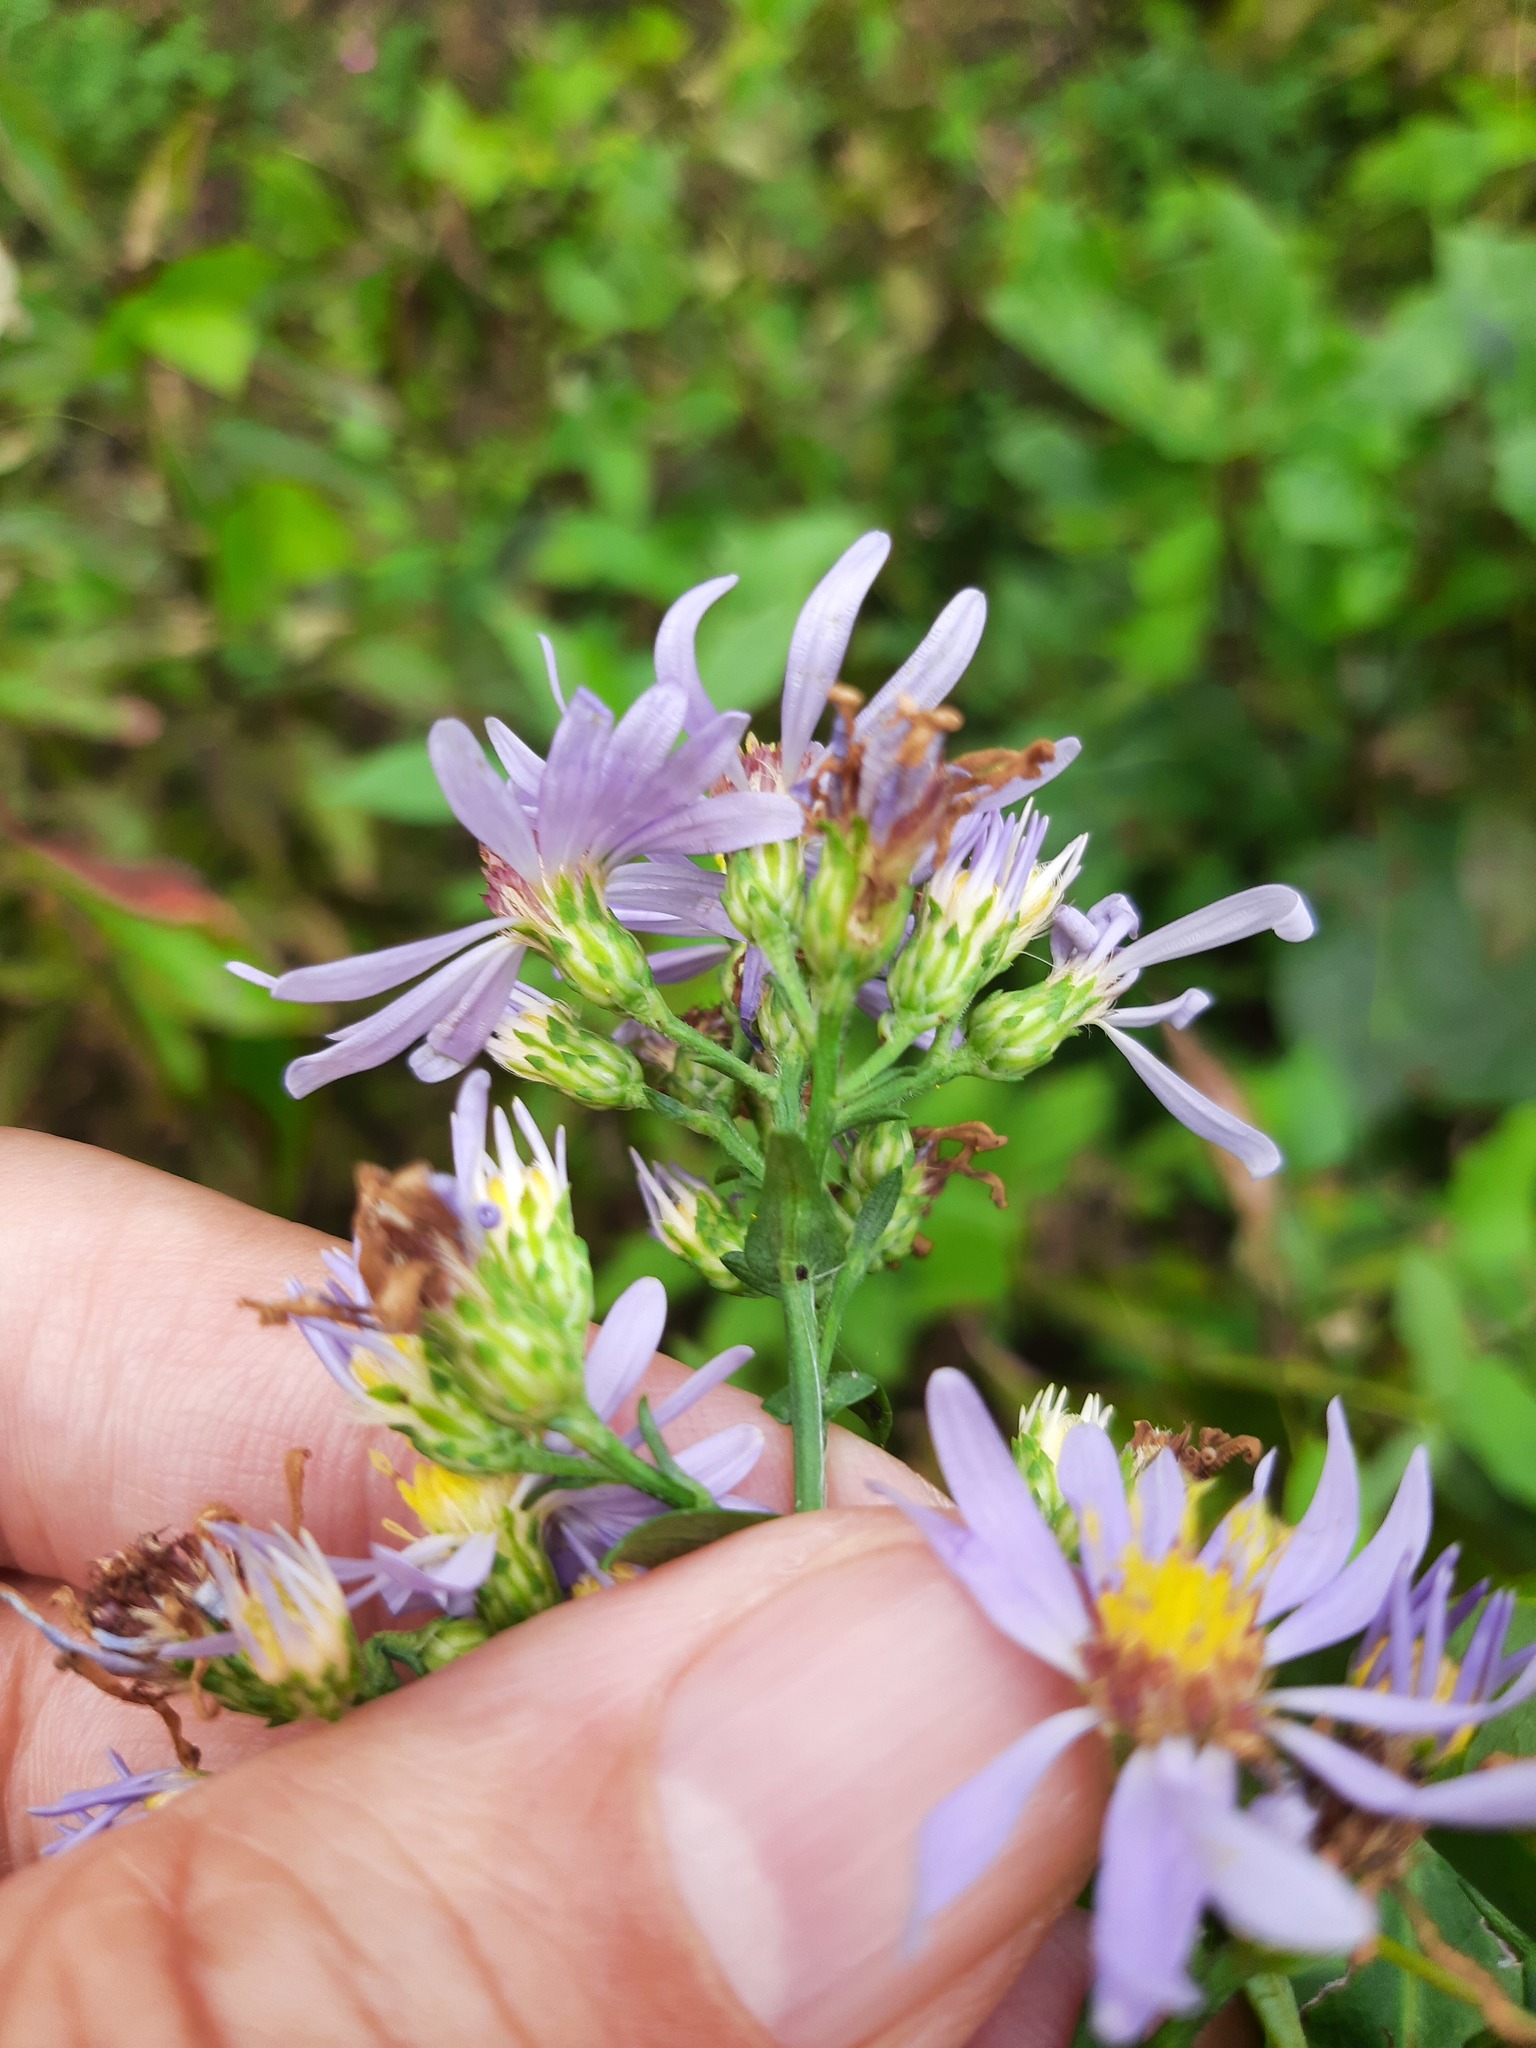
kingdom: Plantae
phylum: Tracheophyta
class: Magnoliopsida
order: Asterales
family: Asteraceae
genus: Symphyotrichum
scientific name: Symphyotrichum laeve
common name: Glaucous aster
